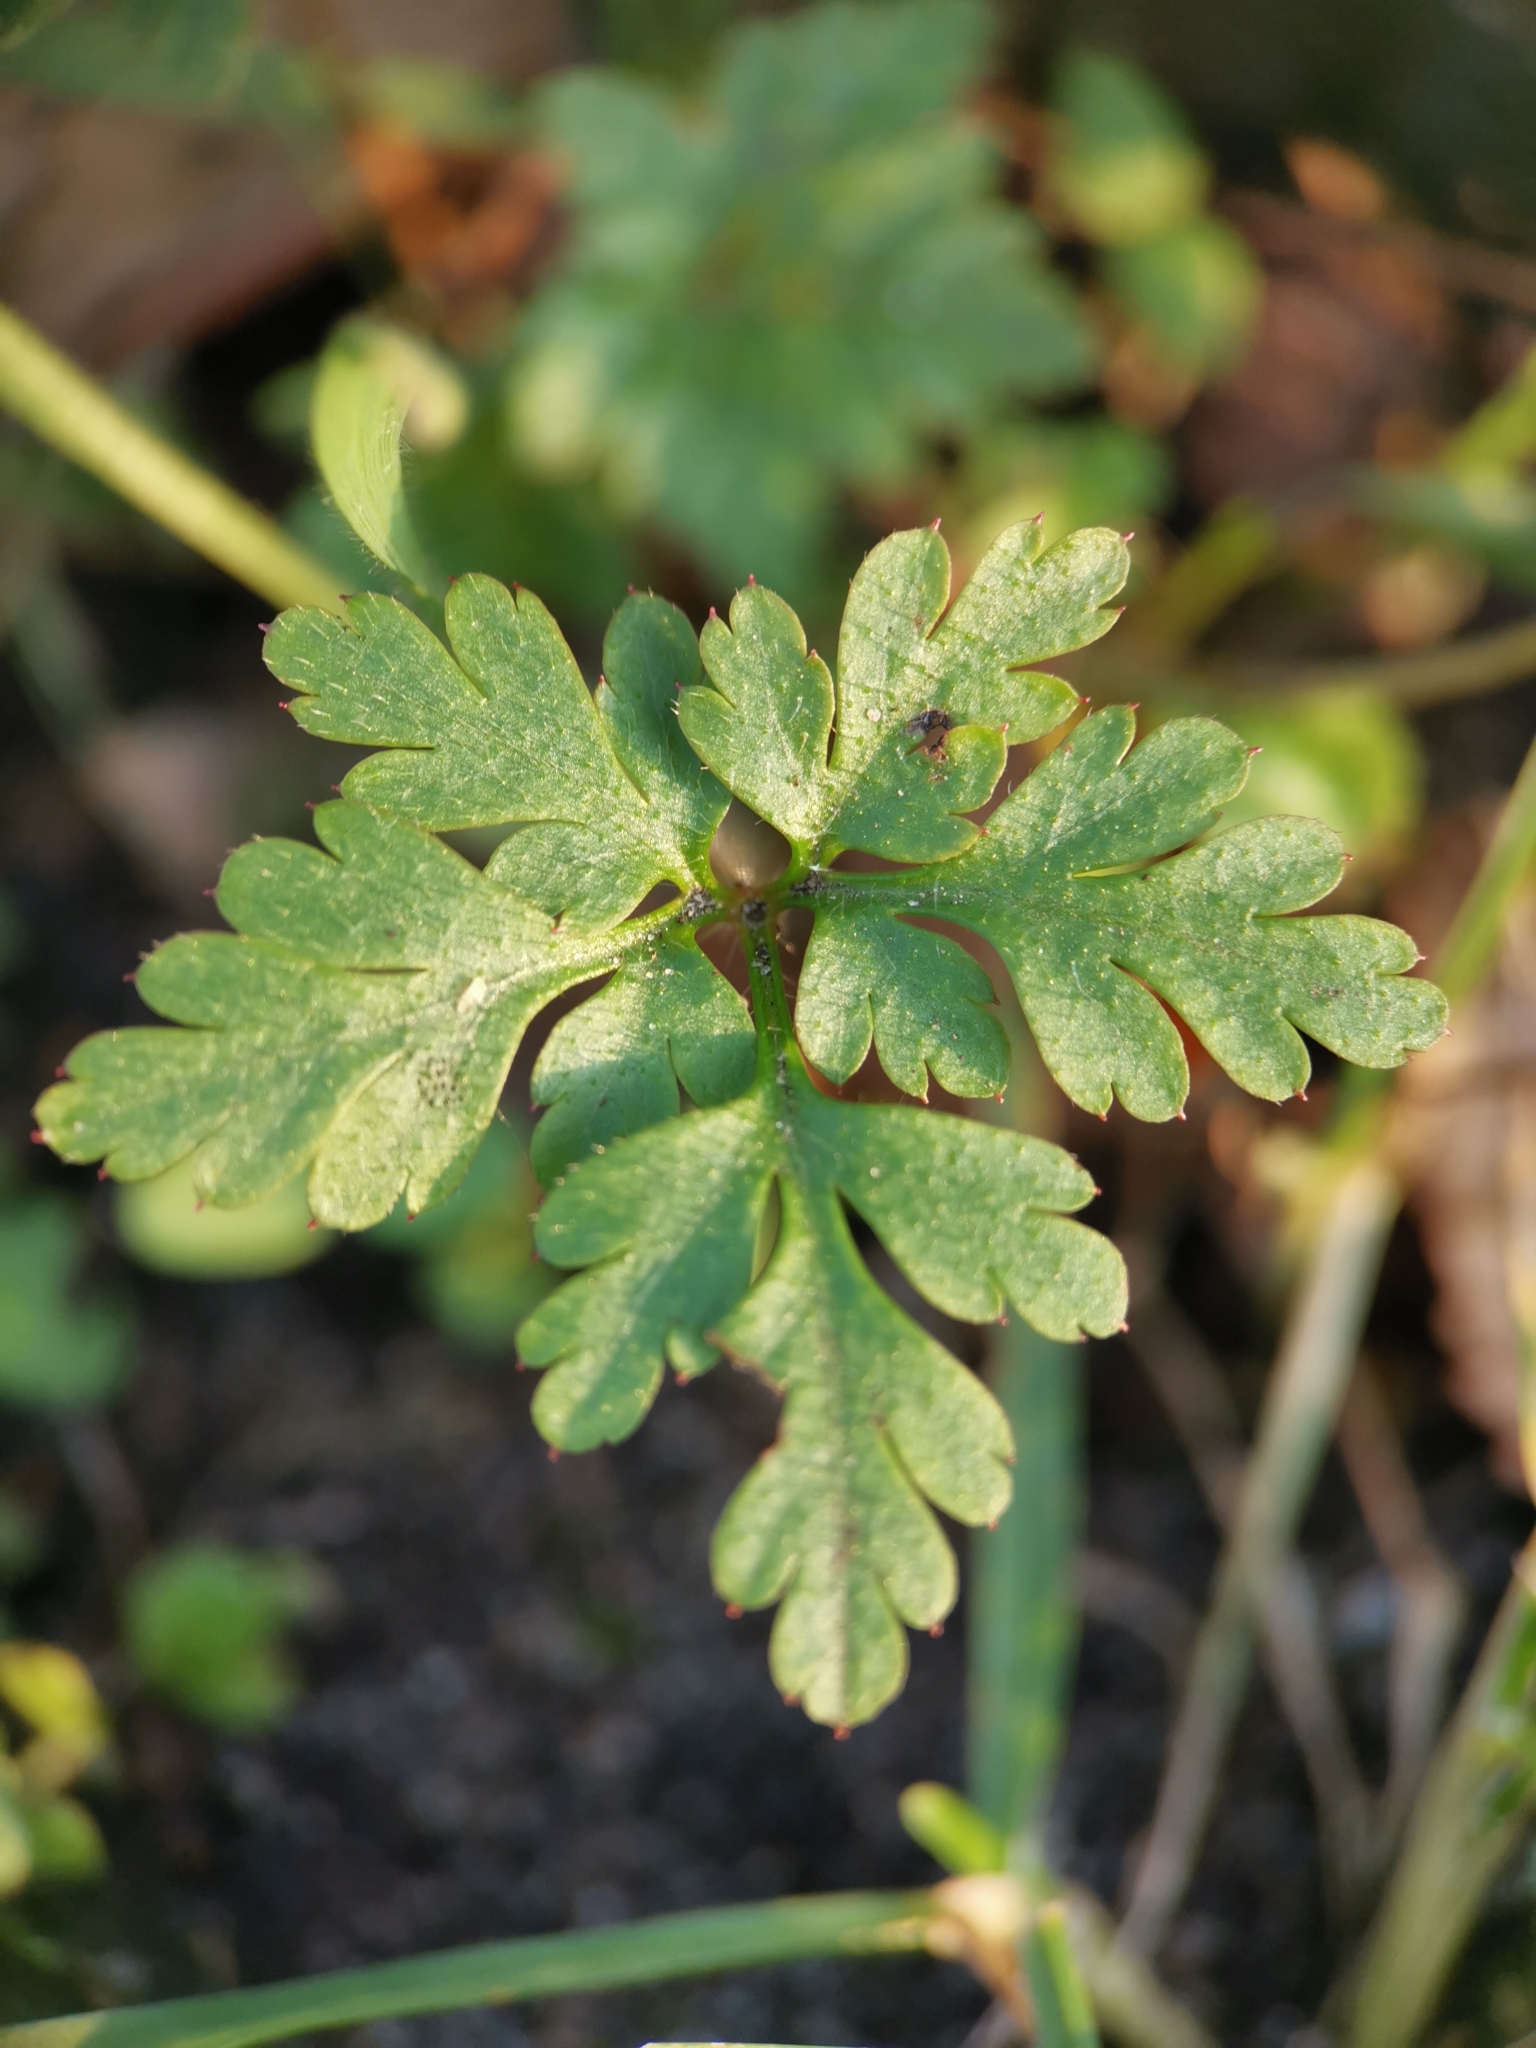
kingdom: Plantae
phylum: Tracheophyta
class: Magnoliopsida
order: Geraniales
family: Geraniaceae
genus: Geranium
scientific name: Geranium robertianum
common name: Herb-robert
